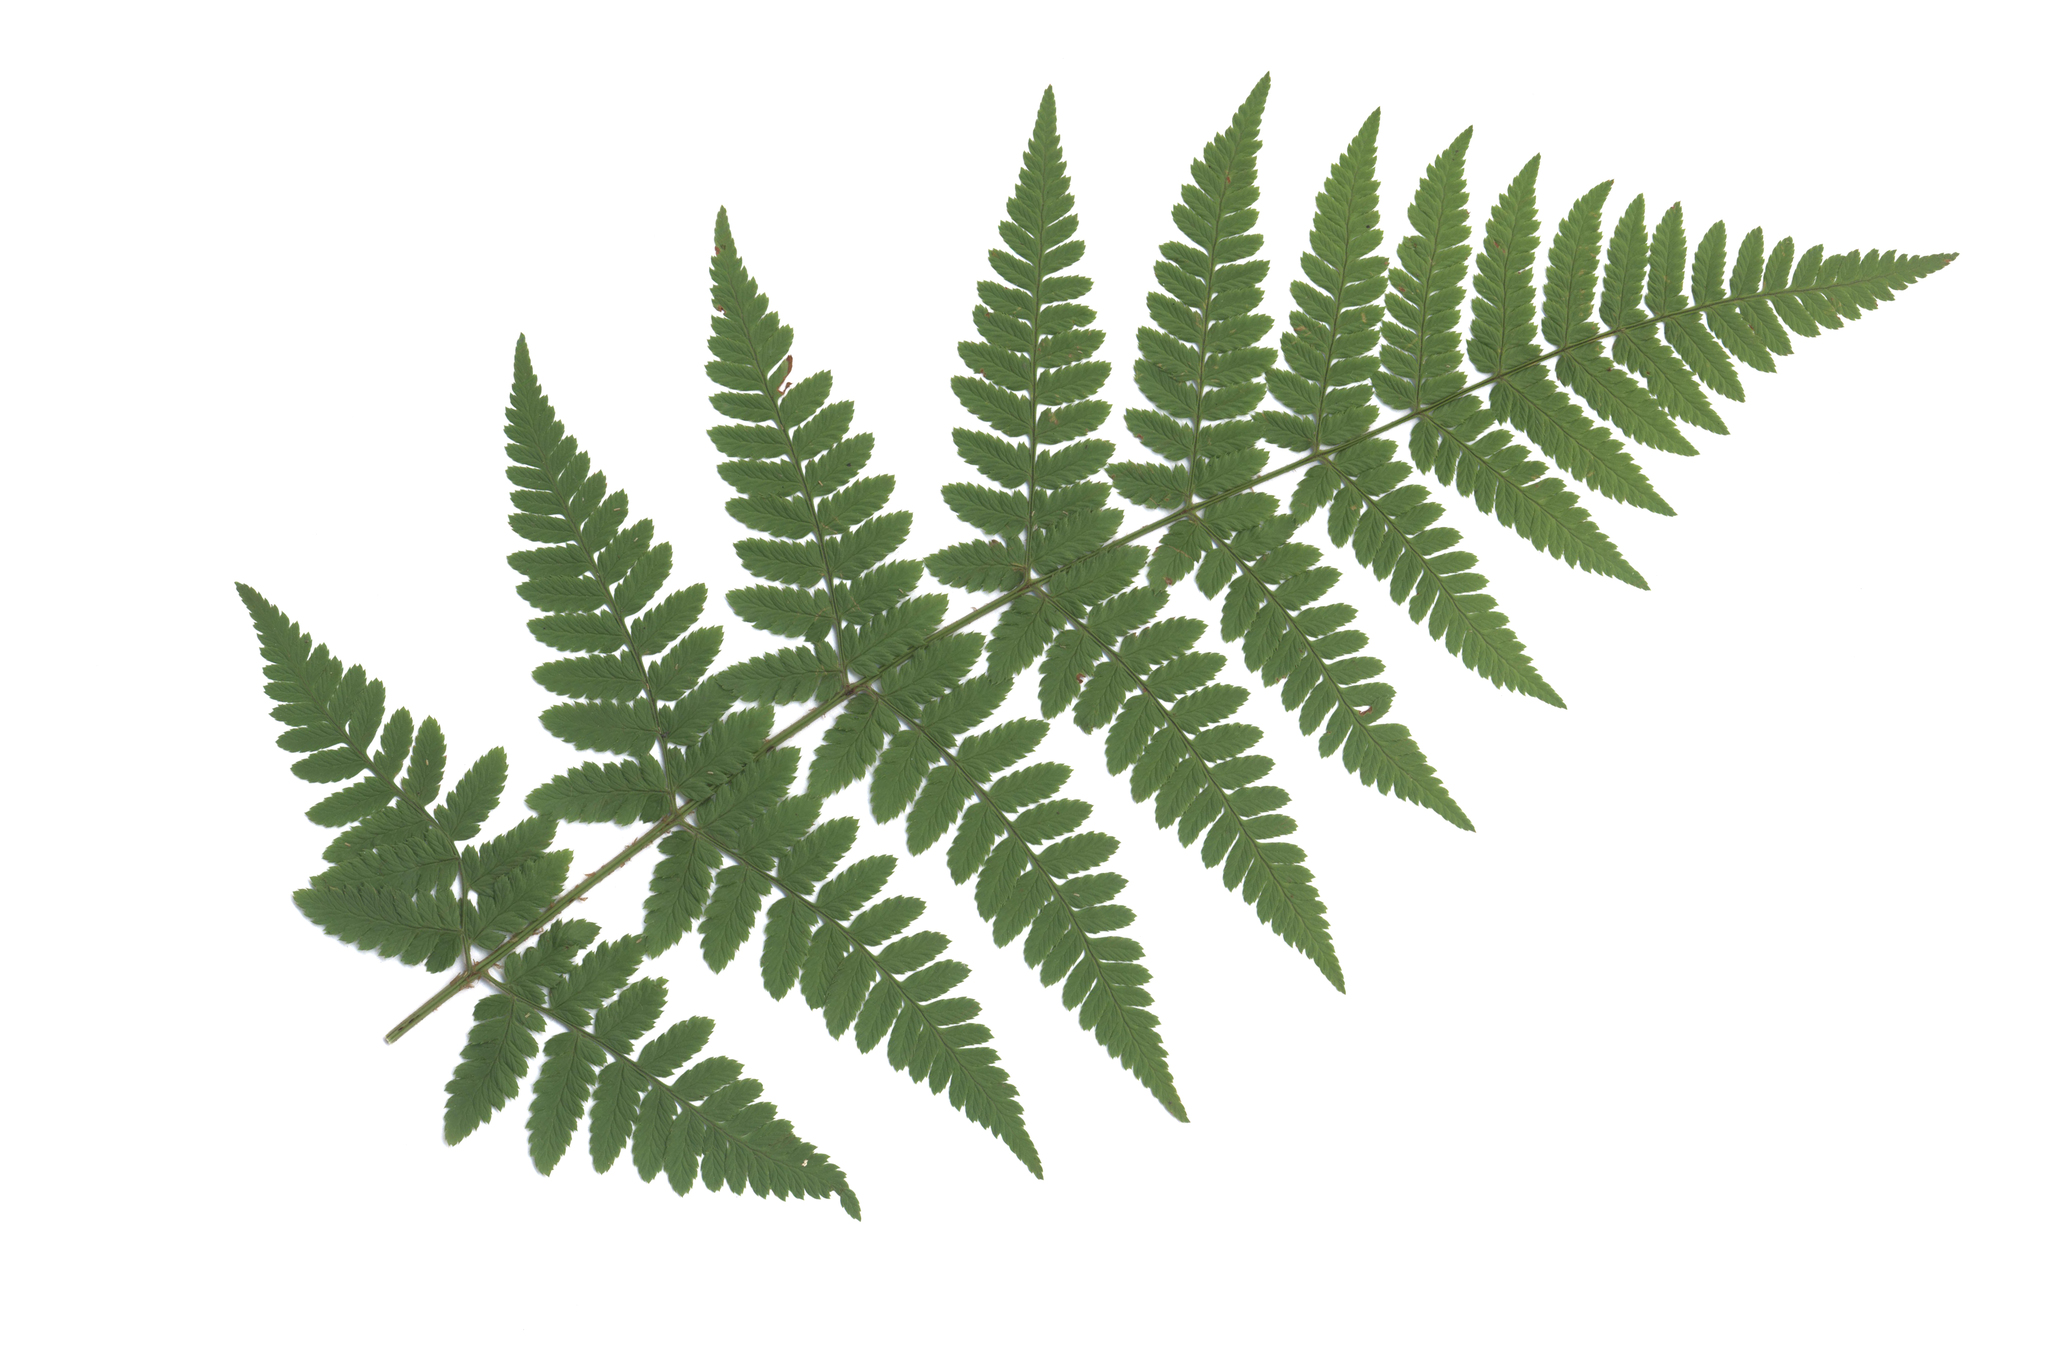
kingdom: Plantae
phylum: Tracheophyta
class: Polypodiopsida
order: Polypodiales
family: Dryopteridaceae
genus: Dryopteris
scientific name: Dryopteris carthusiana
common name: Narrow buckler-fern
